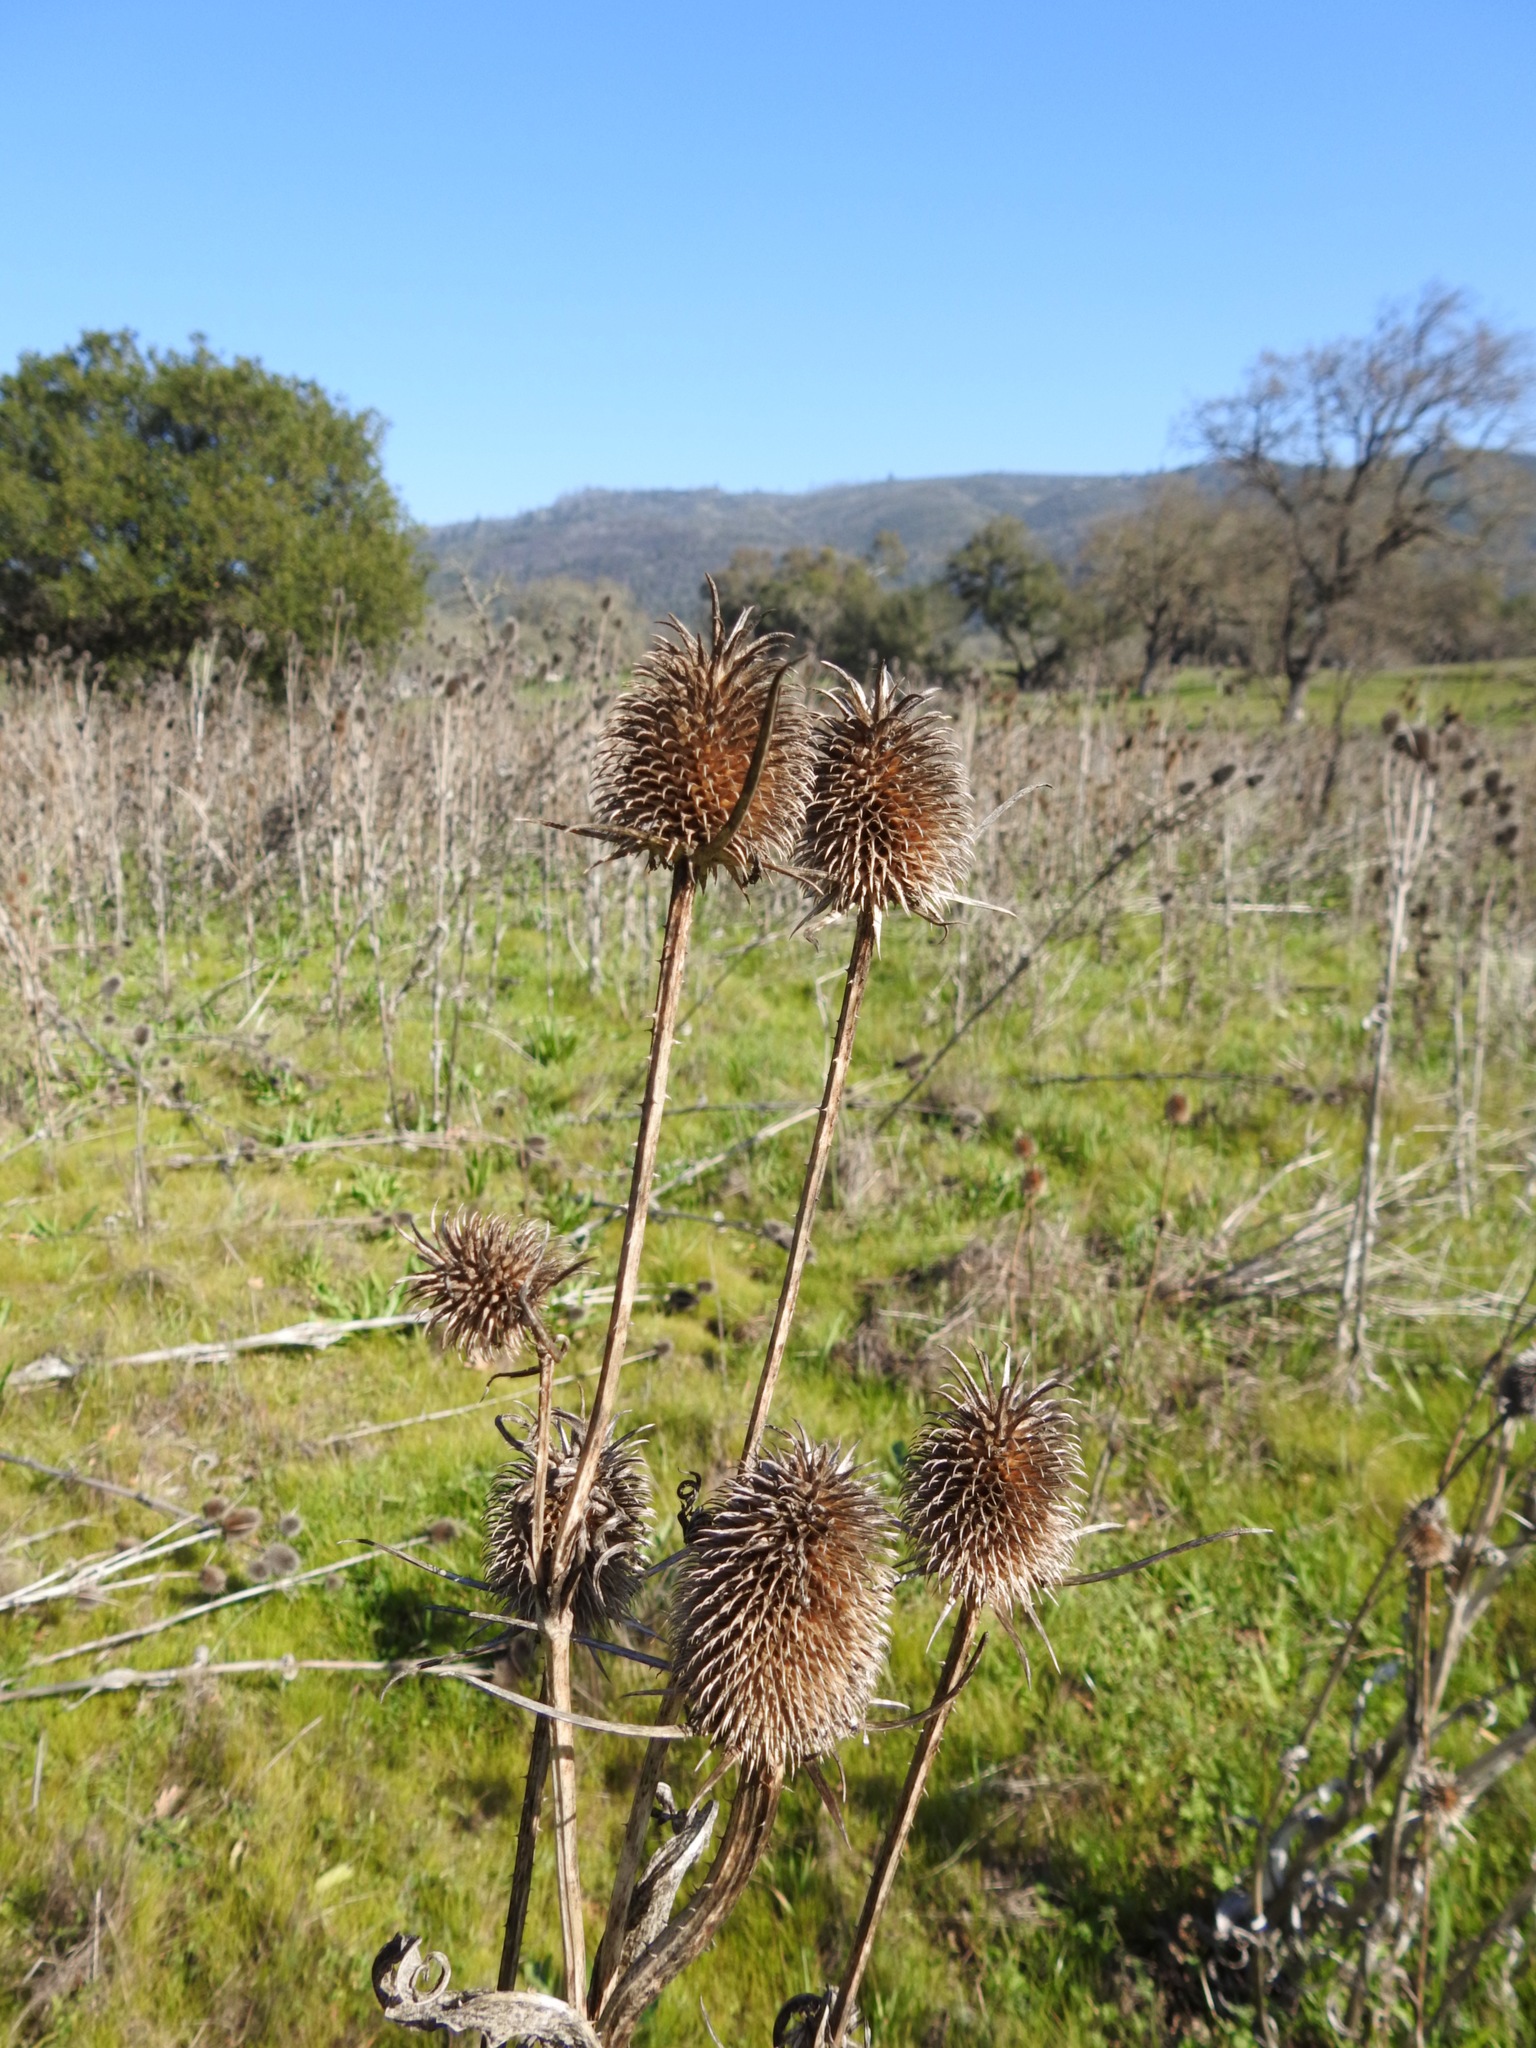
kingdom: Plantae
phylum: Tracheophyta
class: Magnoliopsida
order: Dipsacales
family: Caprifoliaceae
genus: Dipsacus
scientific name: Dipsacus sativus
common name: Fuller's teasel
